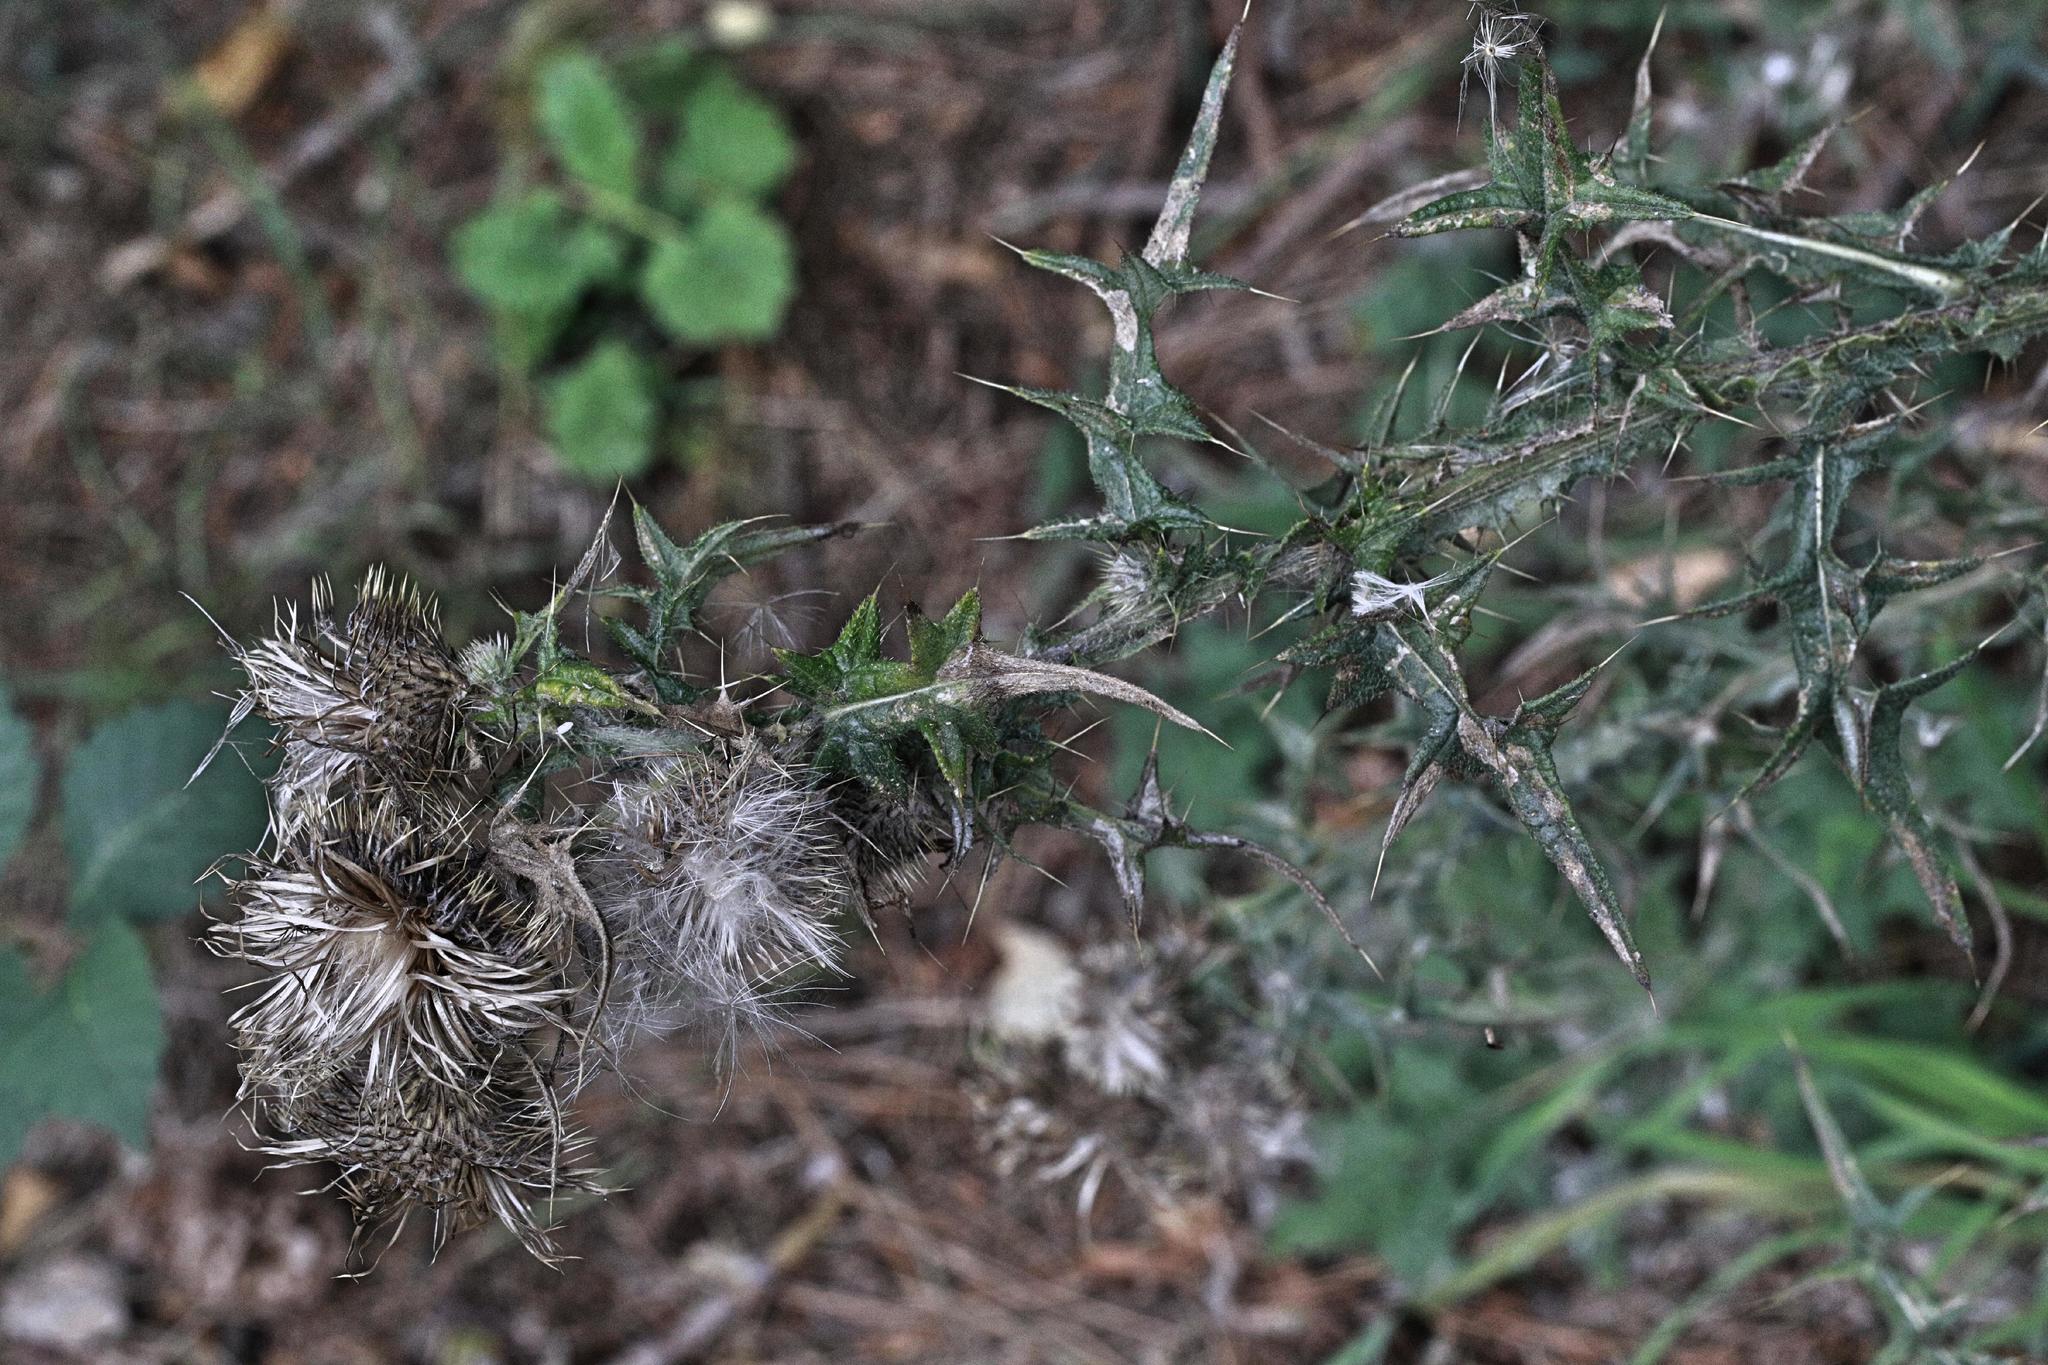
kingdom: Plantae
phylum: Tracheophyta
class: Magnoliopsida
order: Asterales
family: Asteraceae
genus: Cirsium
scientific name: Cirsium vulgare
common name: Bull thistle
